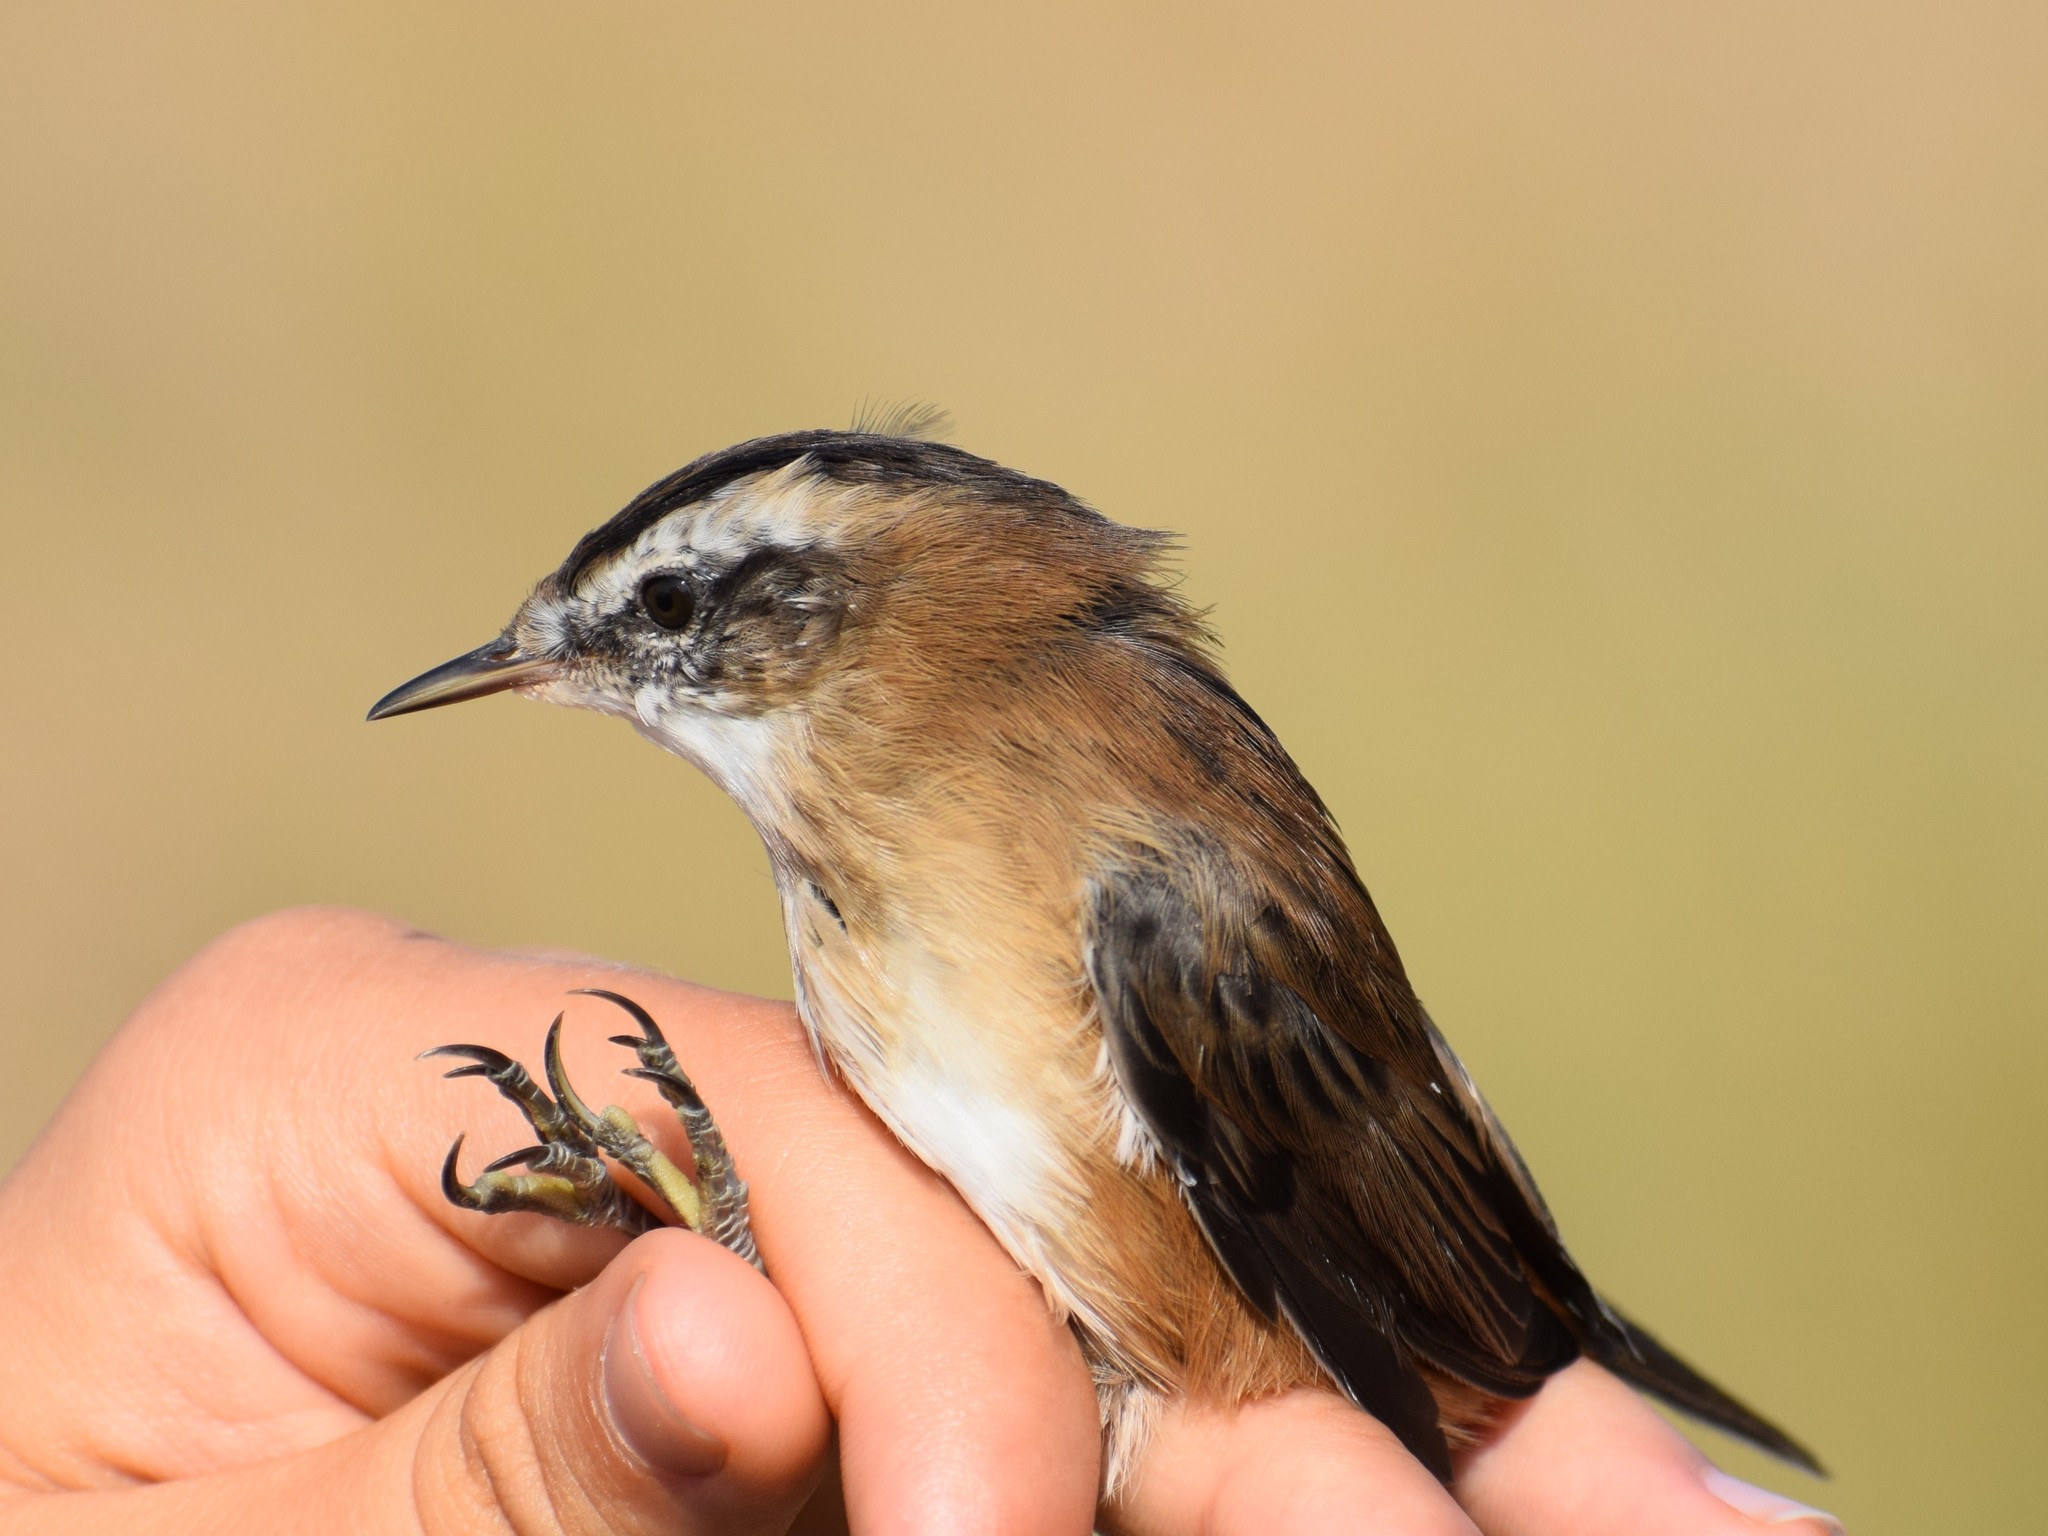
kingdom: Animalia
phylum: Chordata
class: Aves
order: Passeriformes
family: Acrocephalidae
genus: Acrocephalus
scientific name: Acrocephalus melanopogon
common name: Moustached warbler
